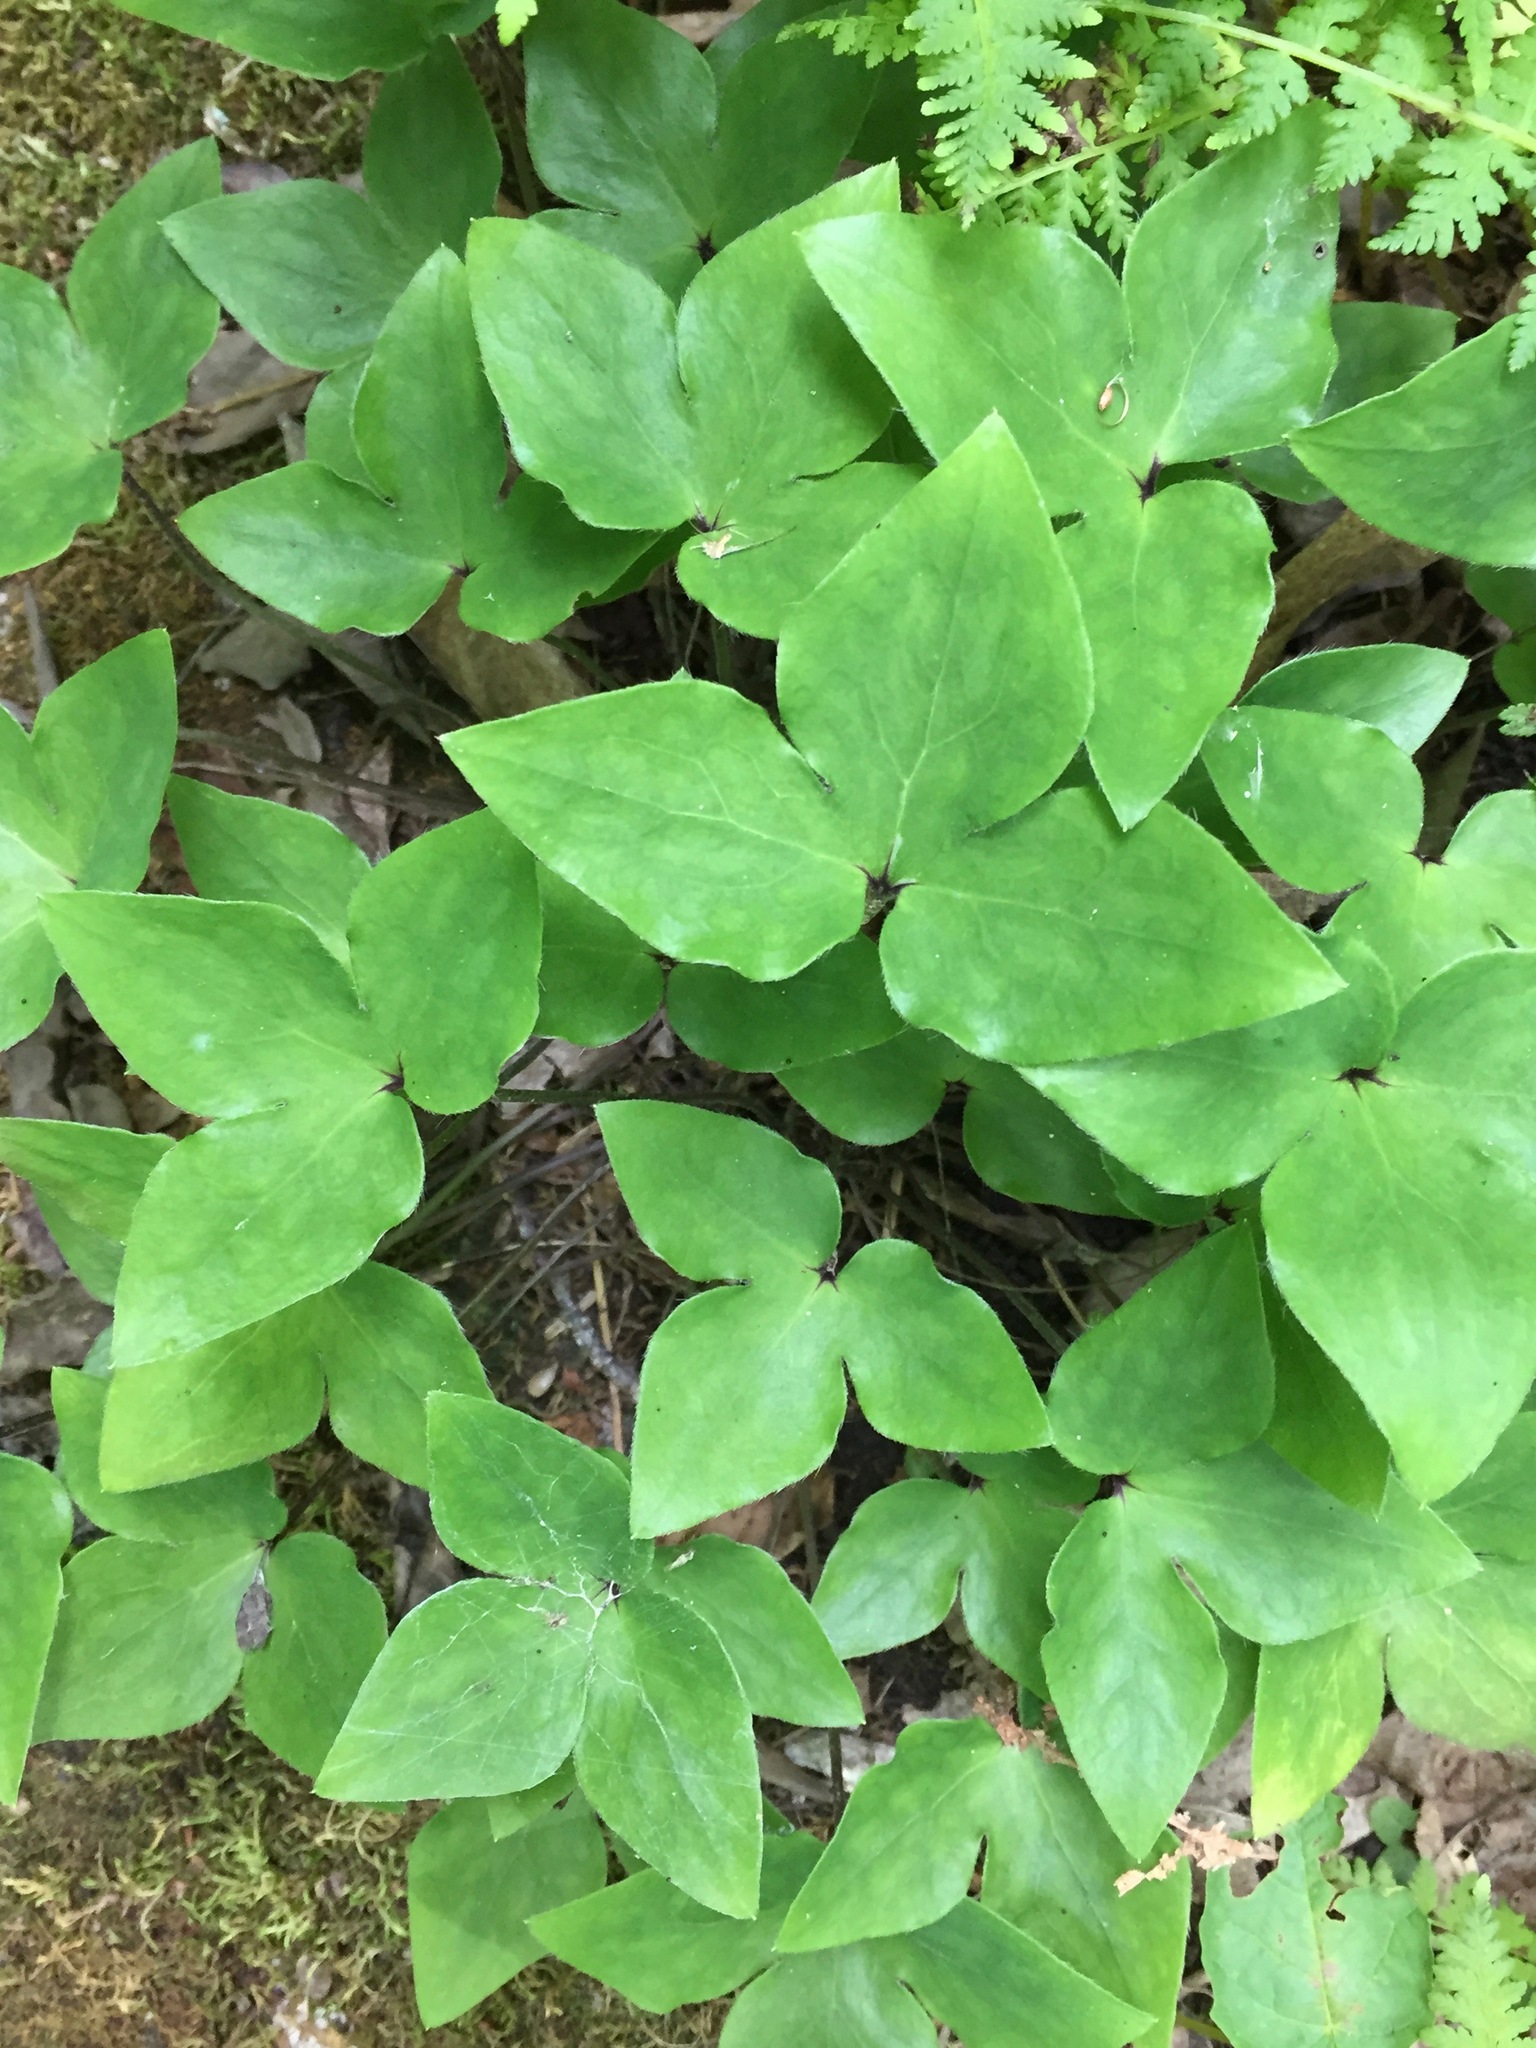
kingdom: Plantae
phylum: Tracheophyta
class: Magnoliopsida
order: Ranunculales
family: Ranunculaceae
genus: Hepatica
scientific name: Hepatica acutiloba
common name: Sharp-lobed hepatica
